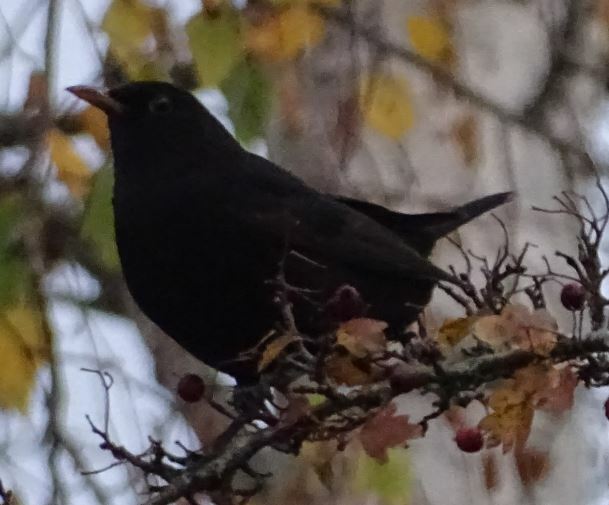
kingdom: Animalia
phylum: Chordata
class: Aves
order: Passeriformes
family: Turdidae
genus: Turdus
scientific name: Turdus merula
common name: Common blackbird
